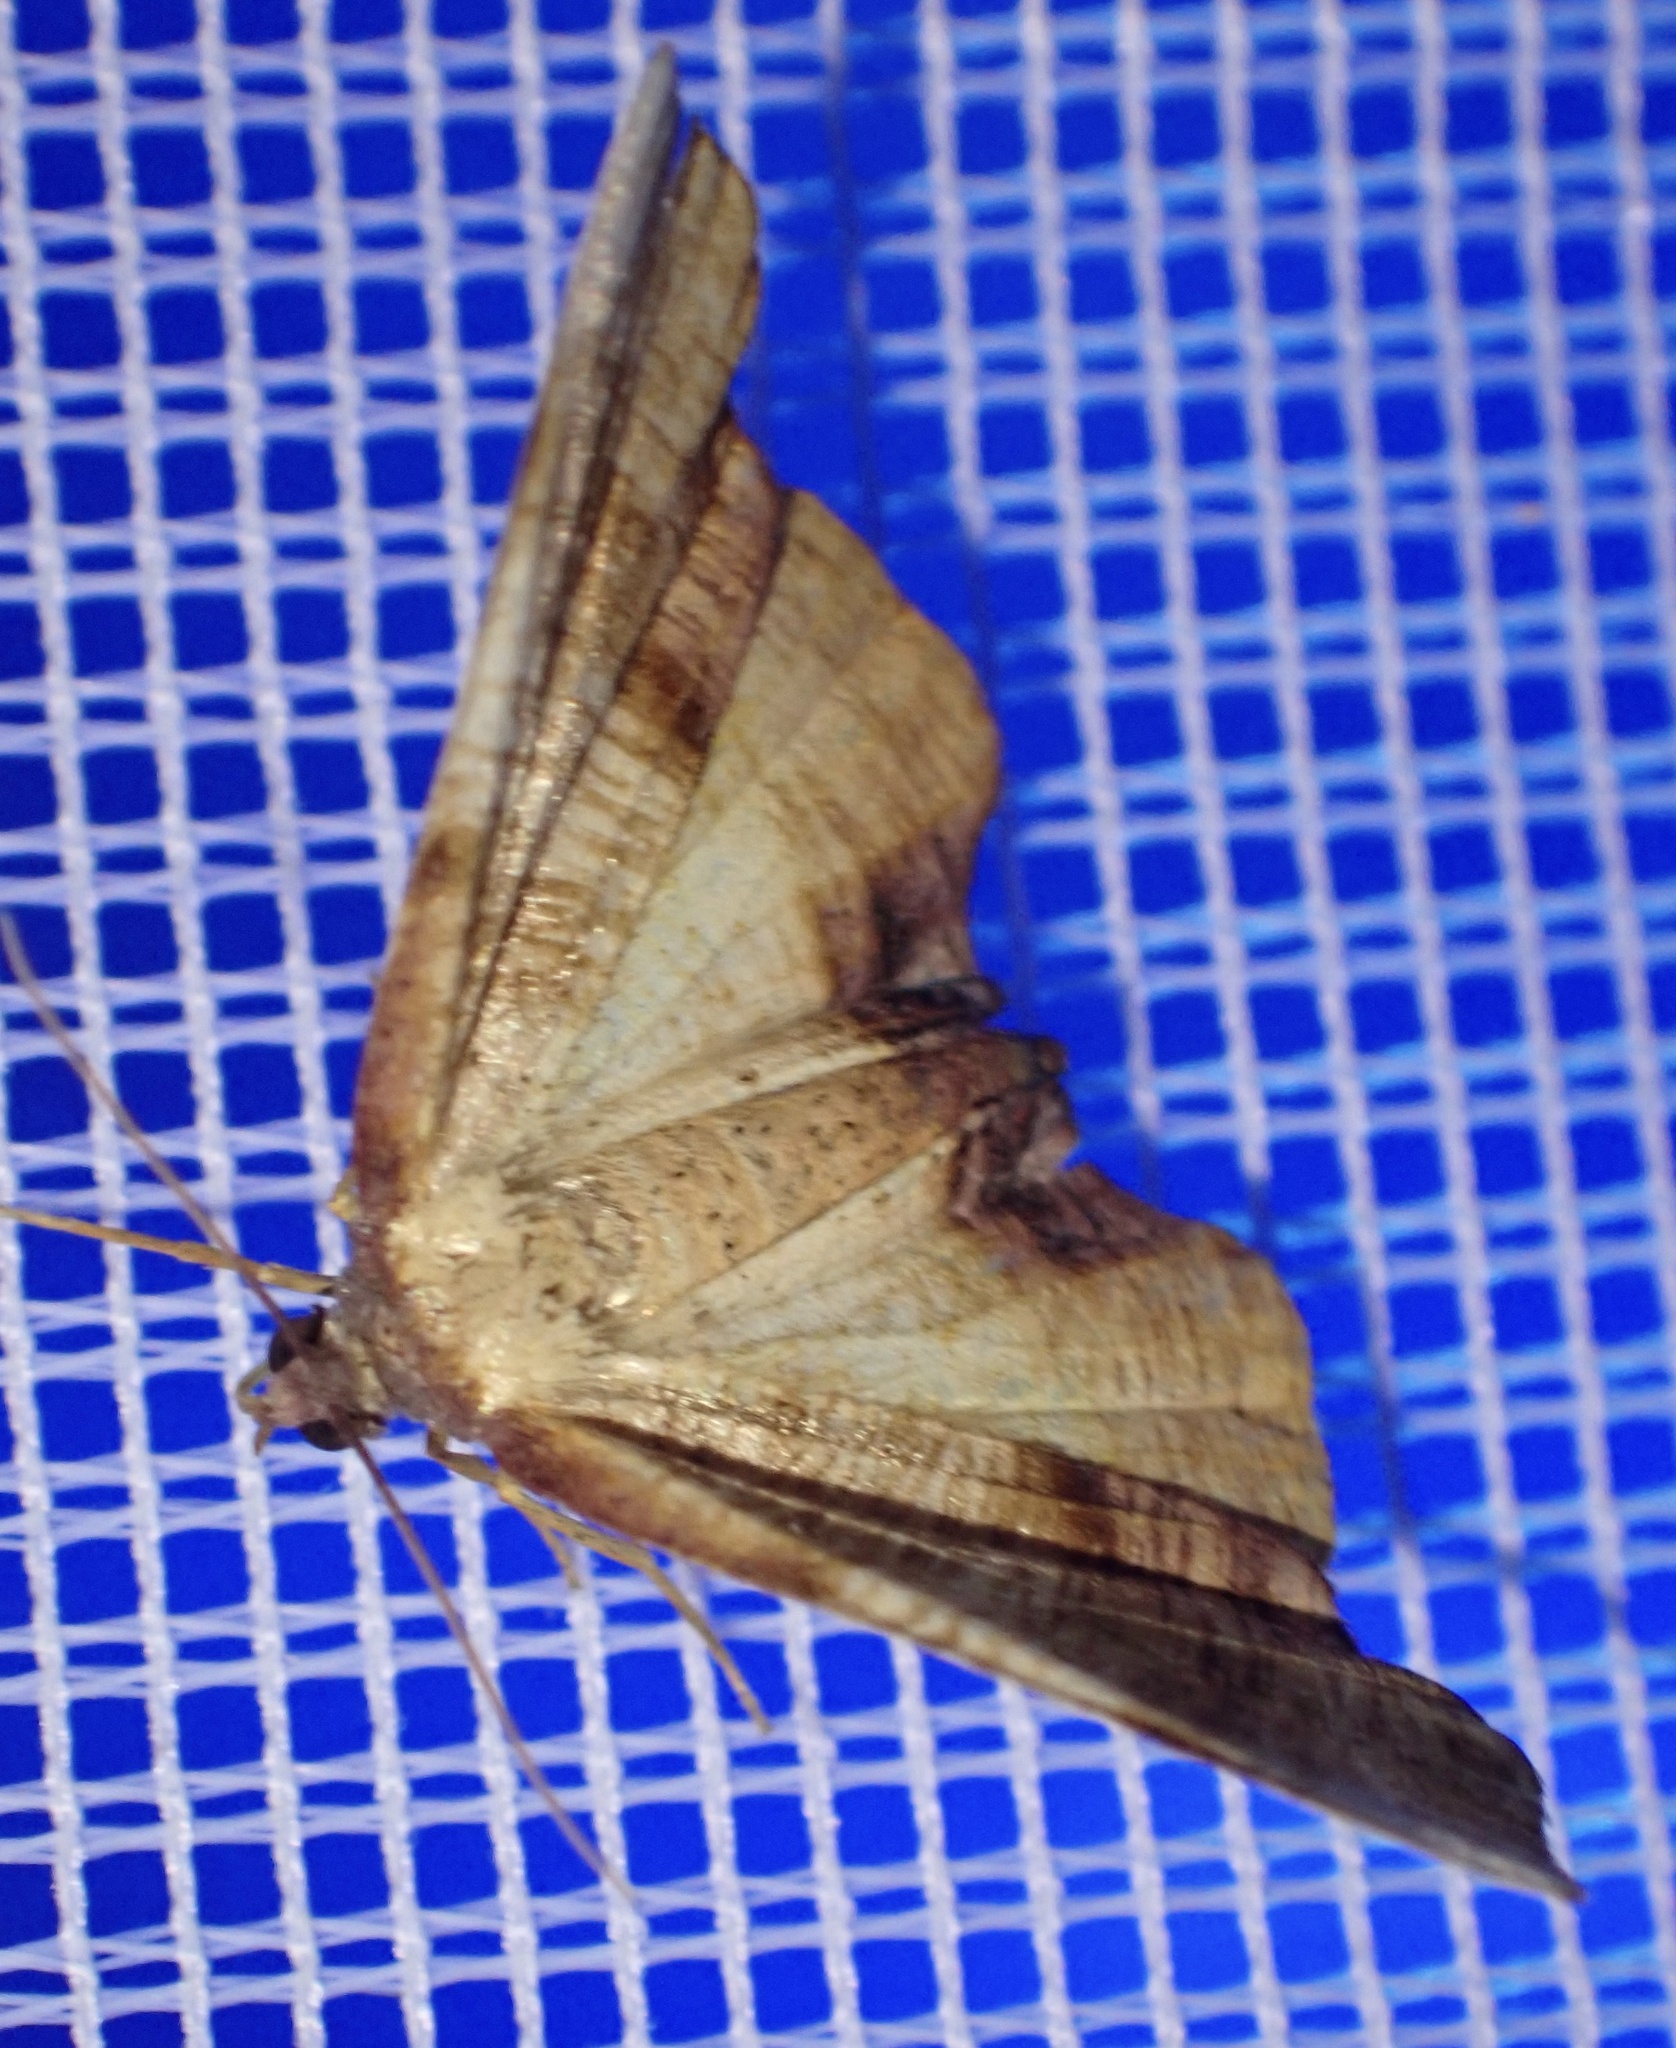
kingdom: Animalia
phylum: Arthropoda
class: Insecta
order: Lepidoptera
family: Geometridae
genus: Plagodis
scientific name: Plagodis dolabraria
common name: Scorched wing
